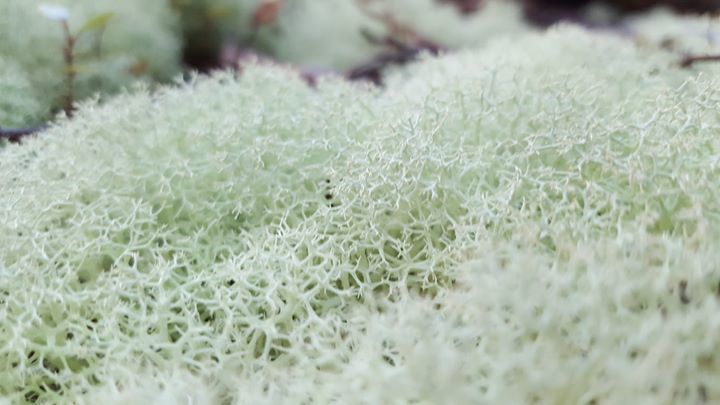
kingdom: Fungi
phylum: Ascomycota
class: Lecanoromycetes
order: Lecanorales
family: Cladoniaceae
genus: Cladonia
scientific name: Cladonia confusa
